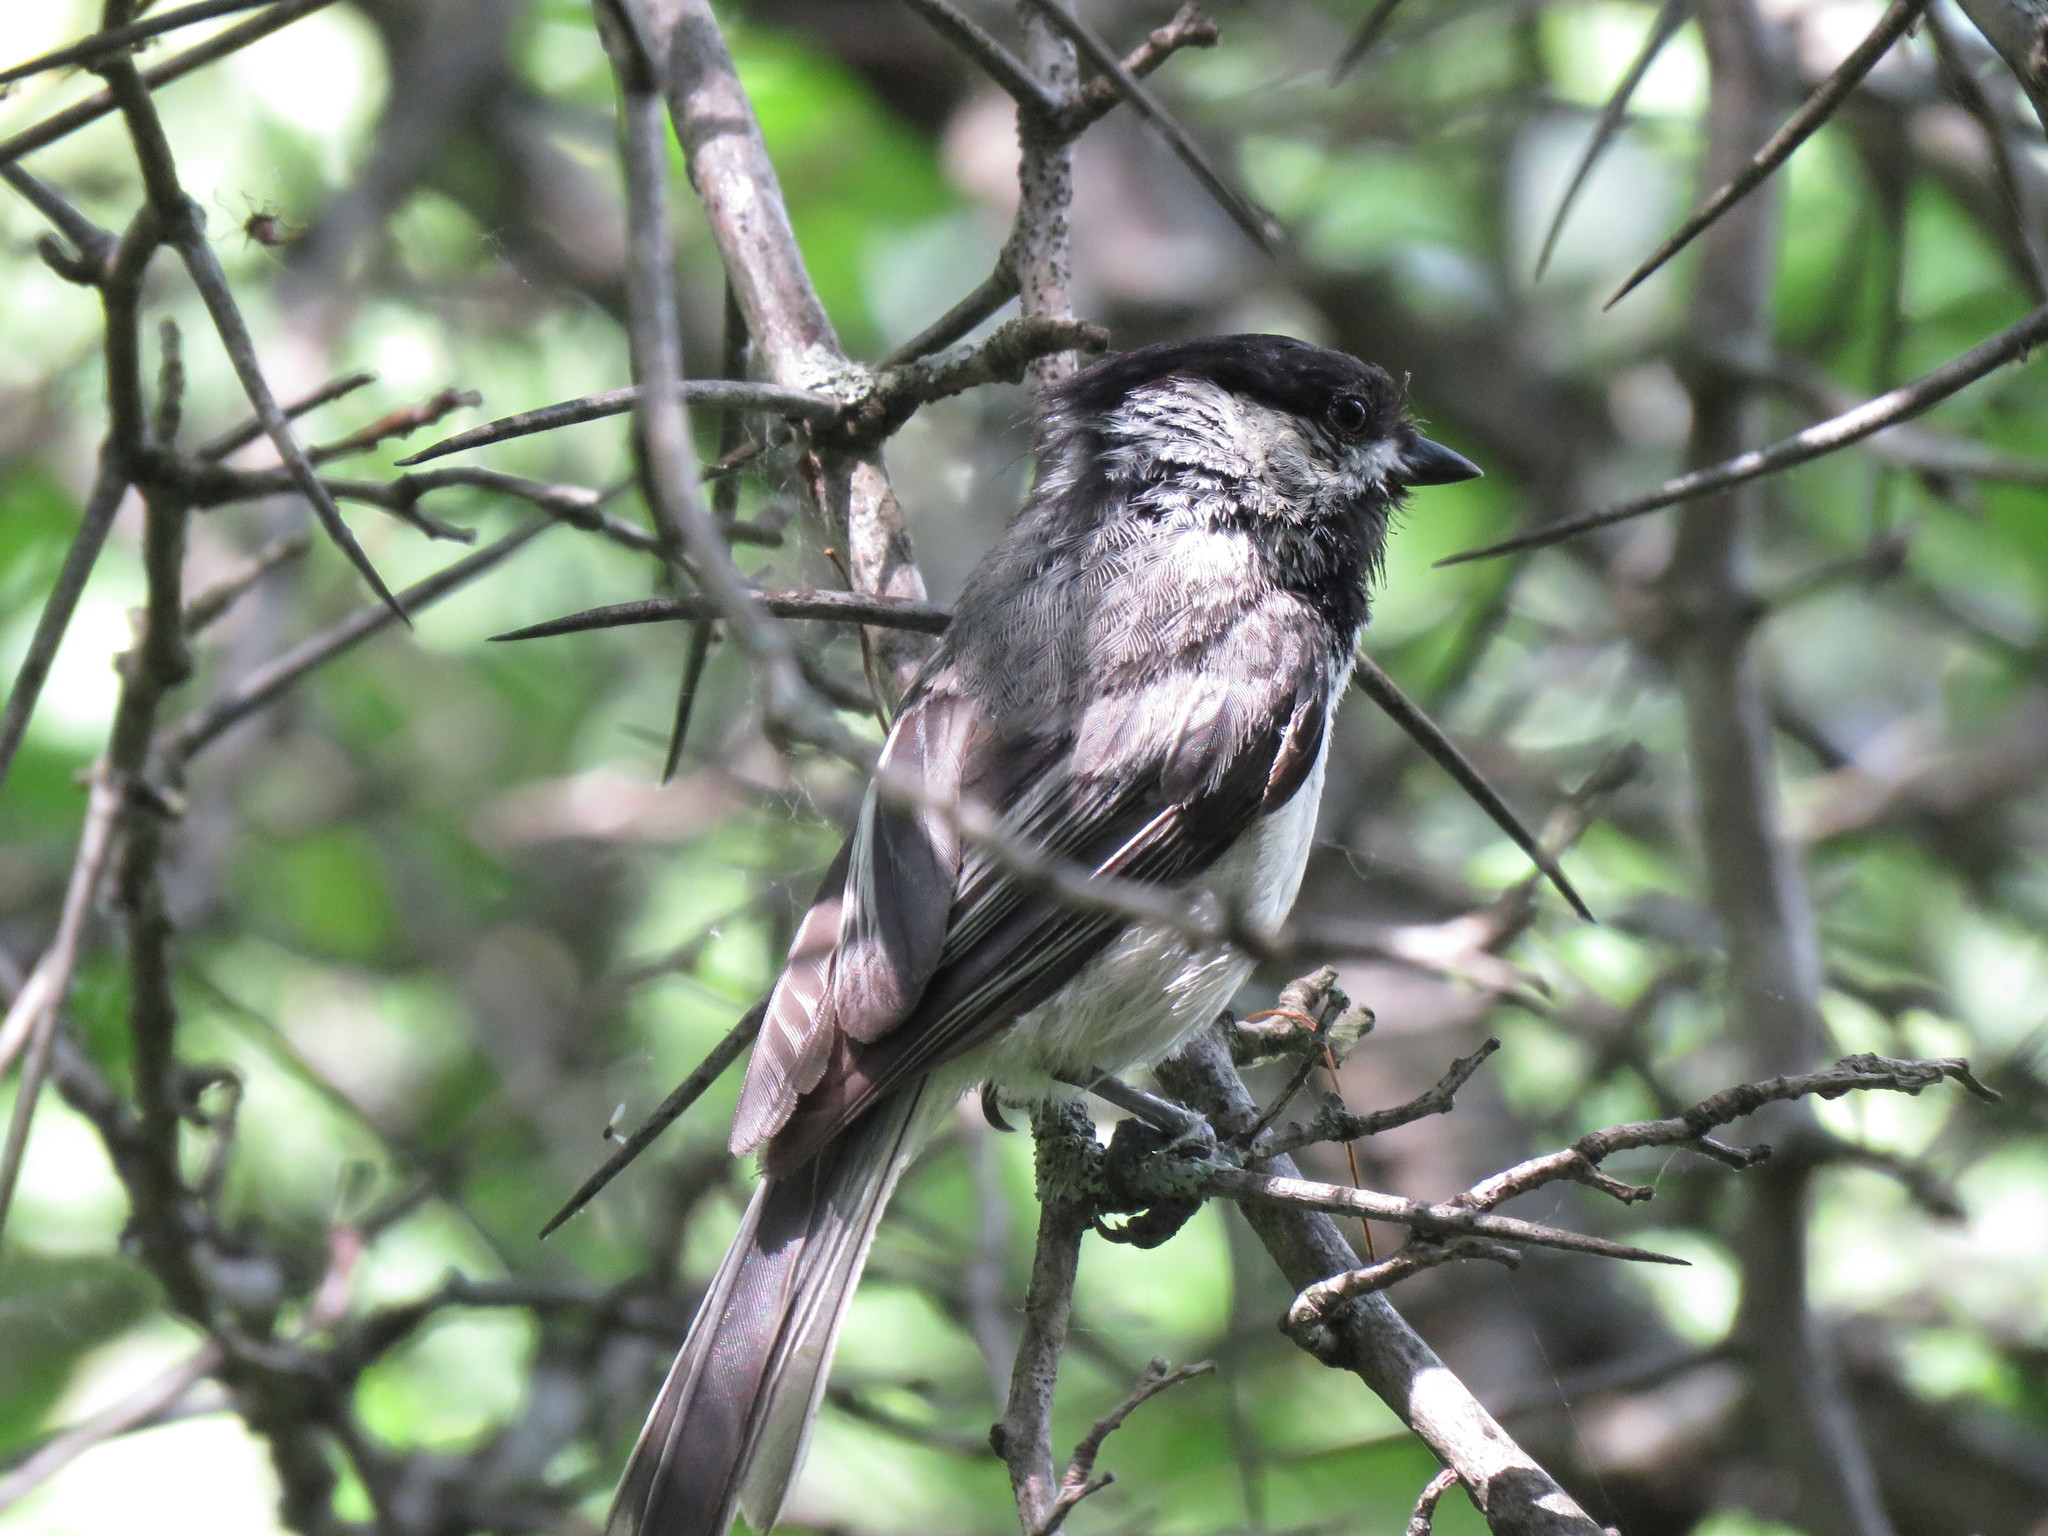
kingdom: Animalia
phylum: Chordata
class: Aves
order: Passeriformes
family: Paridae
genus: Poecile
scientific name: Poecile atricapillus
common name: Black-capped chickadee
